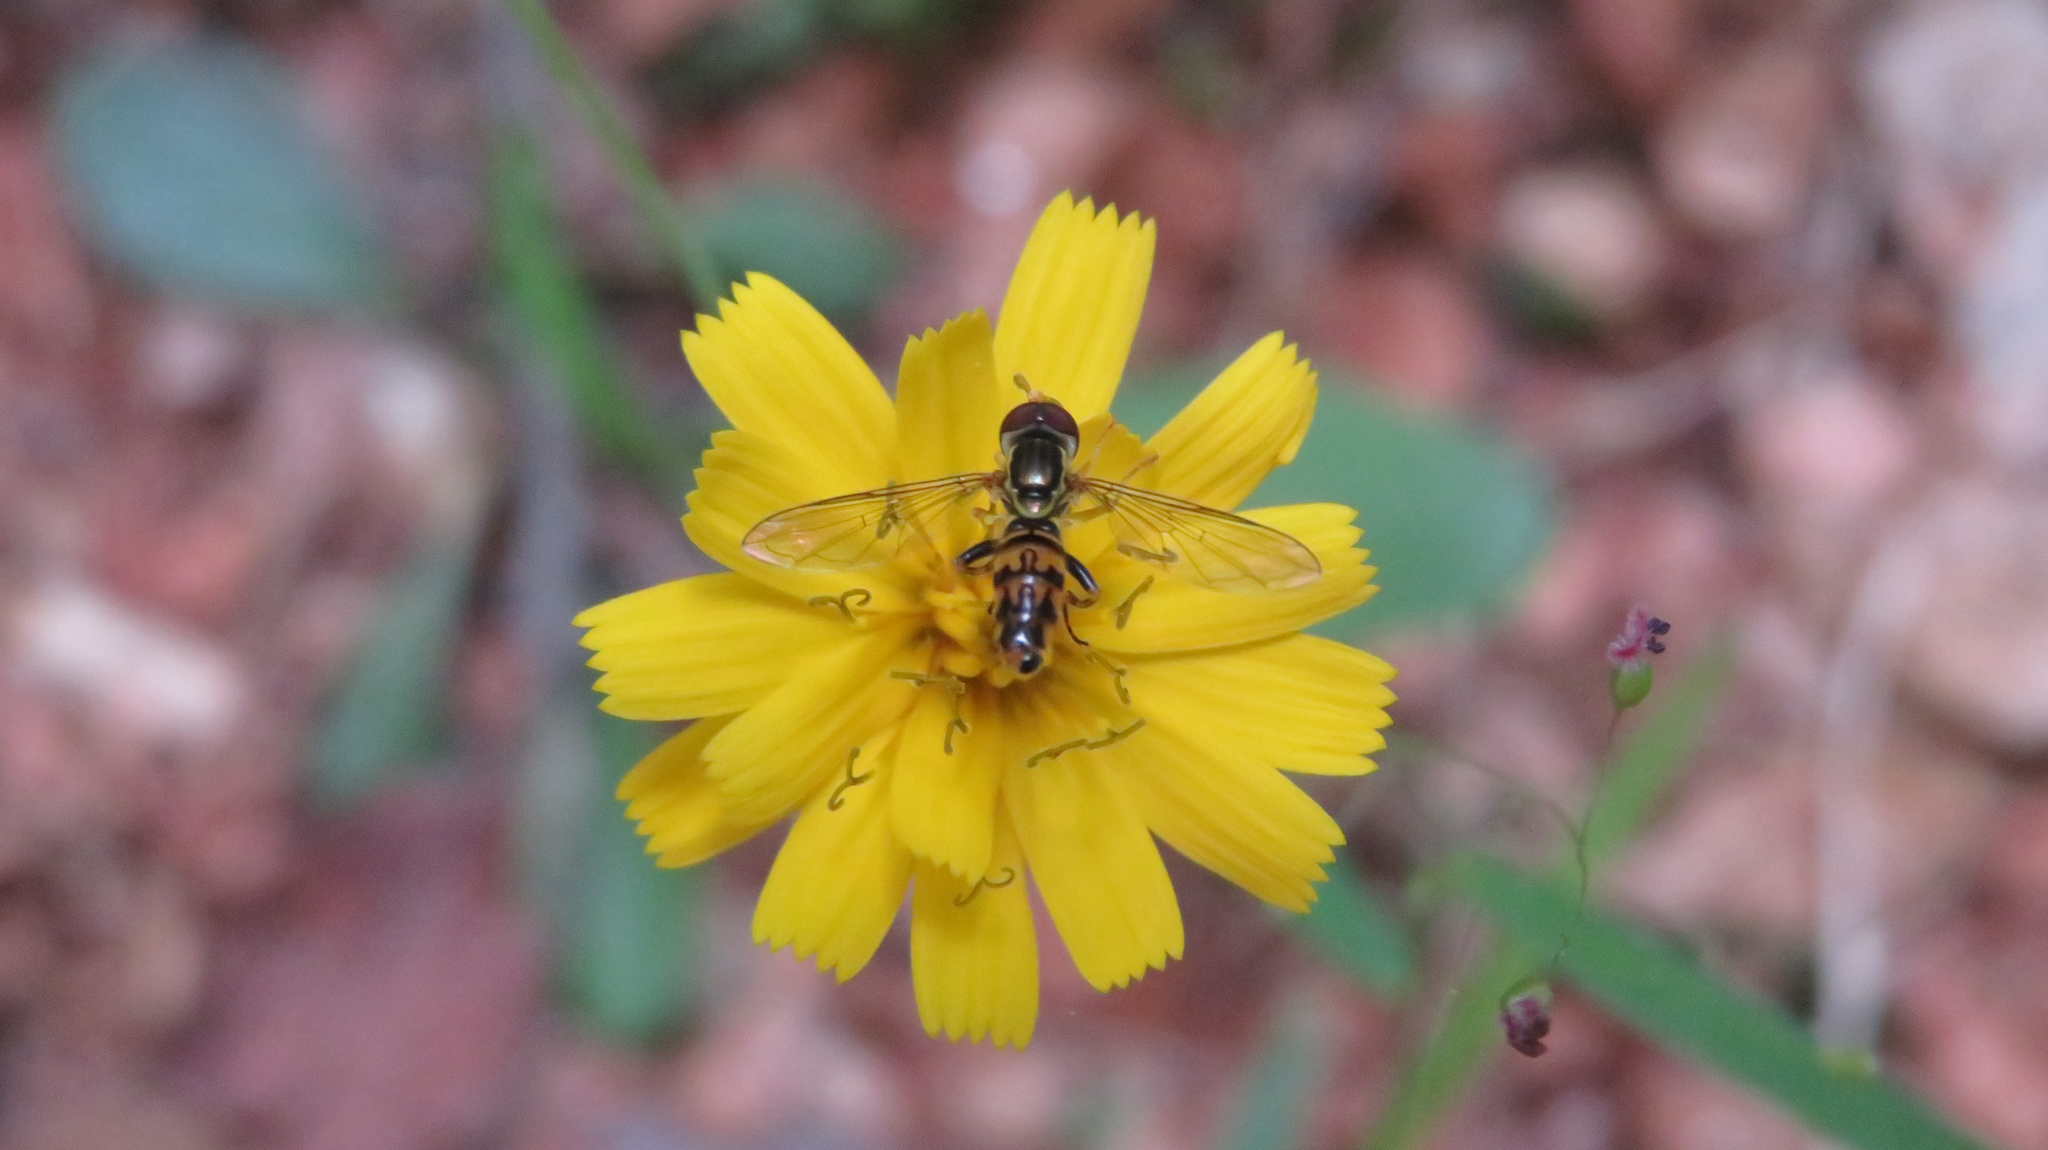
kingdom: Animalia
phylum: Arthropoda
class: Insecta
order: Diptera
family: Syrphidae
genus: Toxomerus
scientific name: Toxomerus geminatus
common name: Eastern calligrapher
